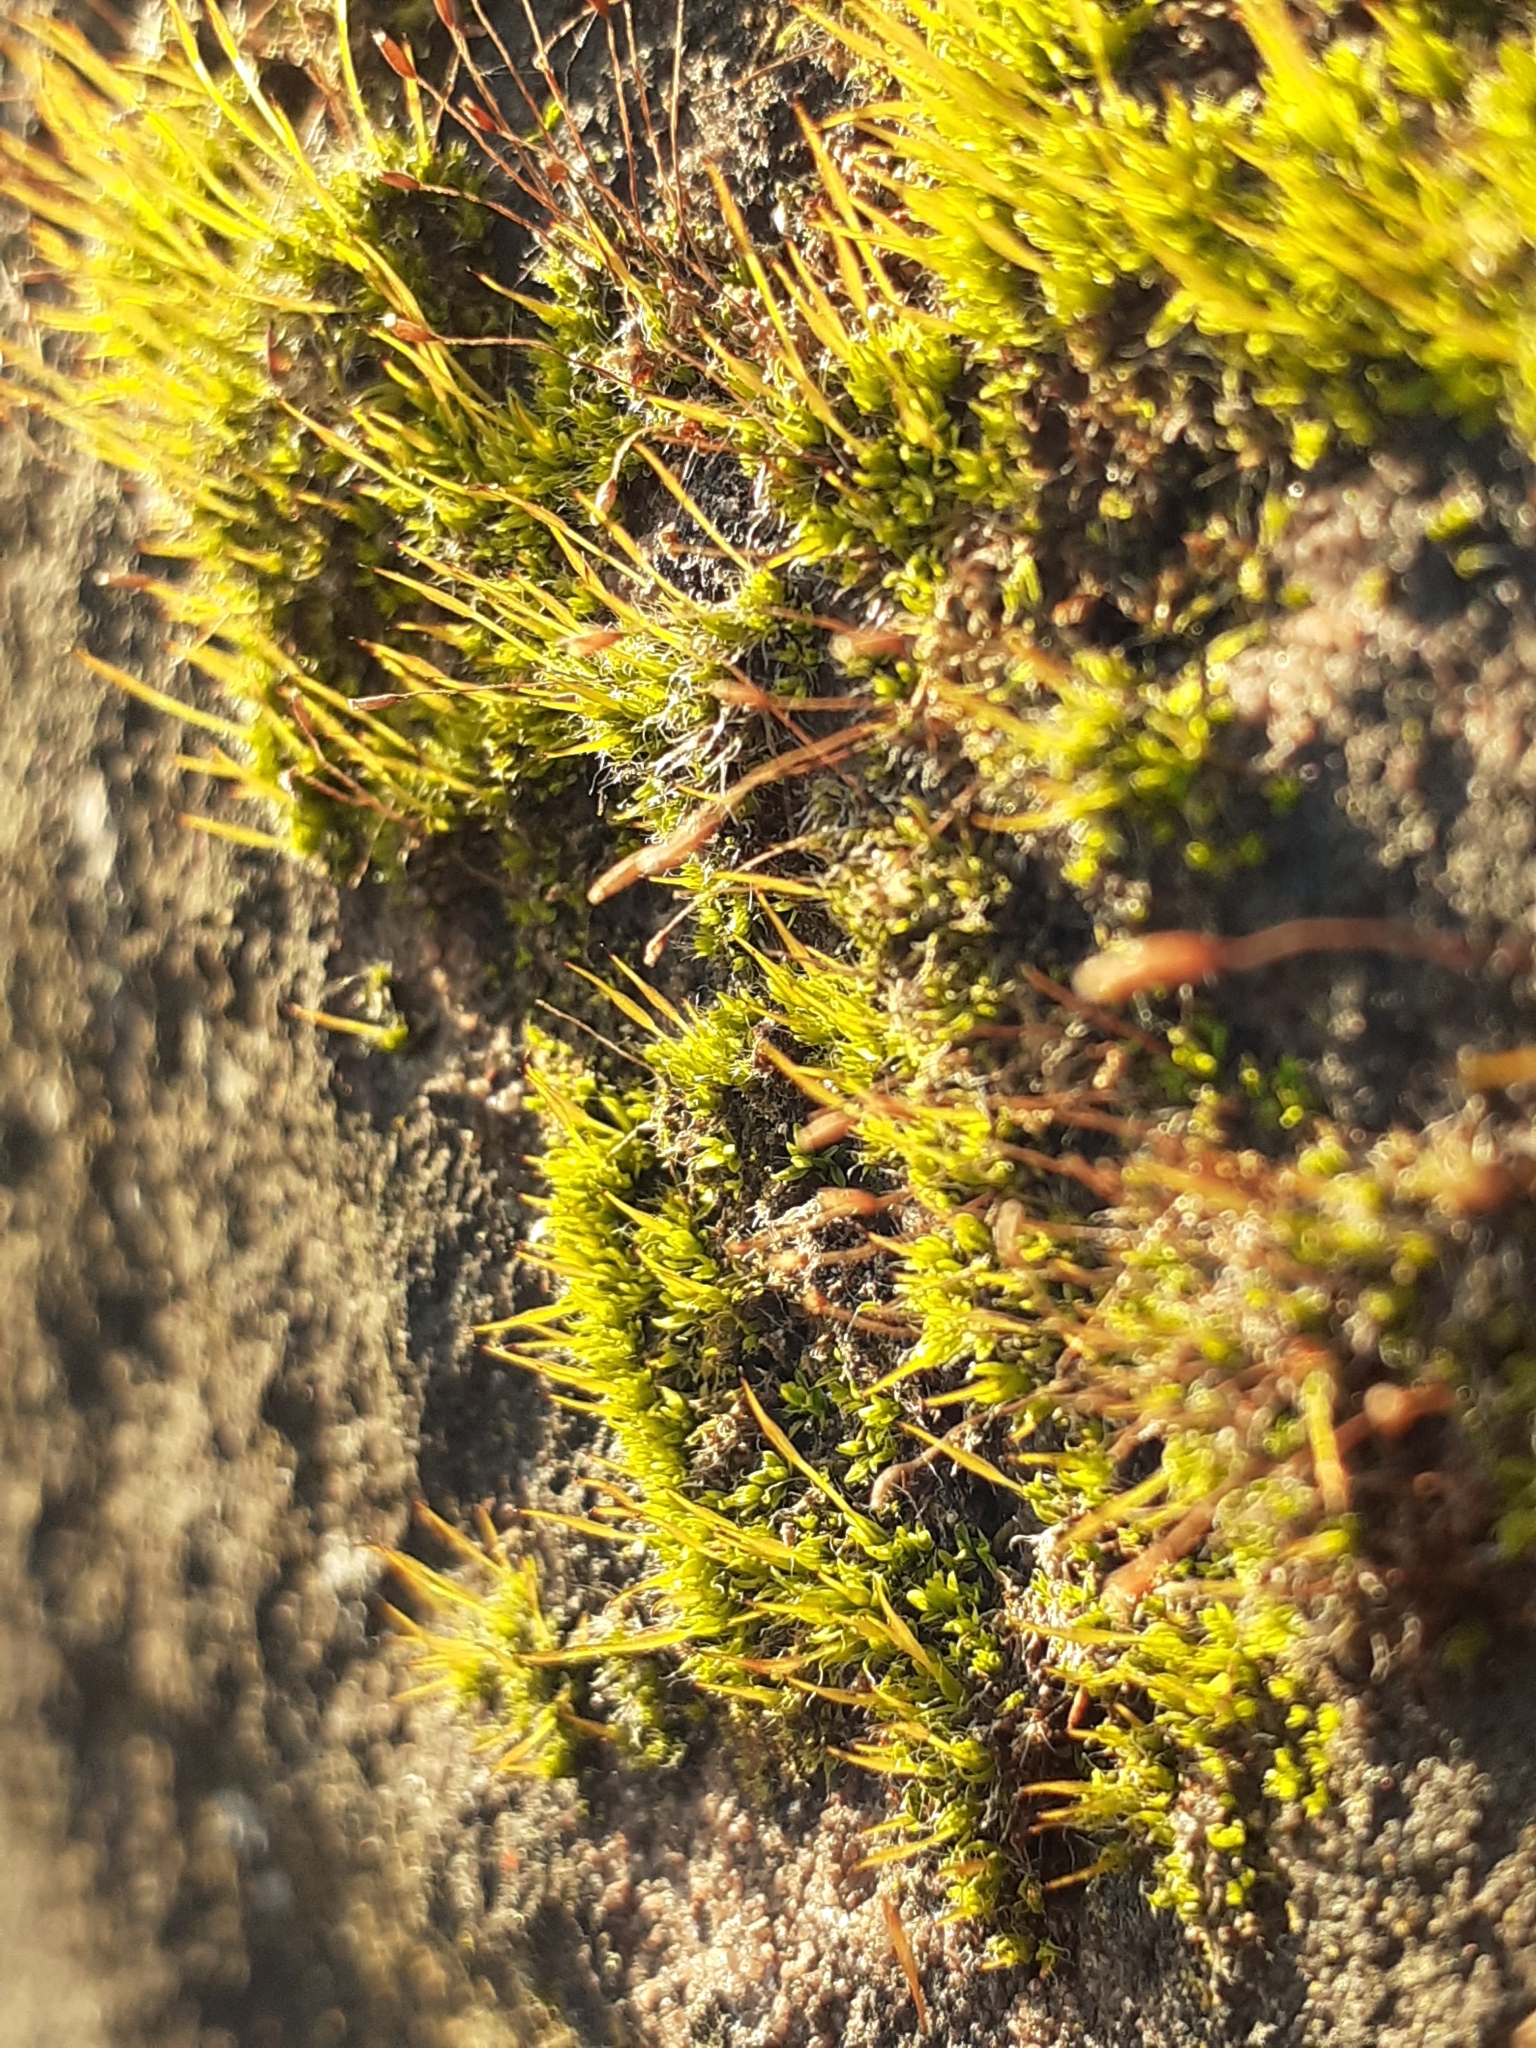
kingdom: Plantae
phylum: Bryophyta
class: Bryopsida
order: Pottiales
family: Pottiaceae
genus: Tortula
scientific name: Tortula muralis
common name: Wall screw-moss
